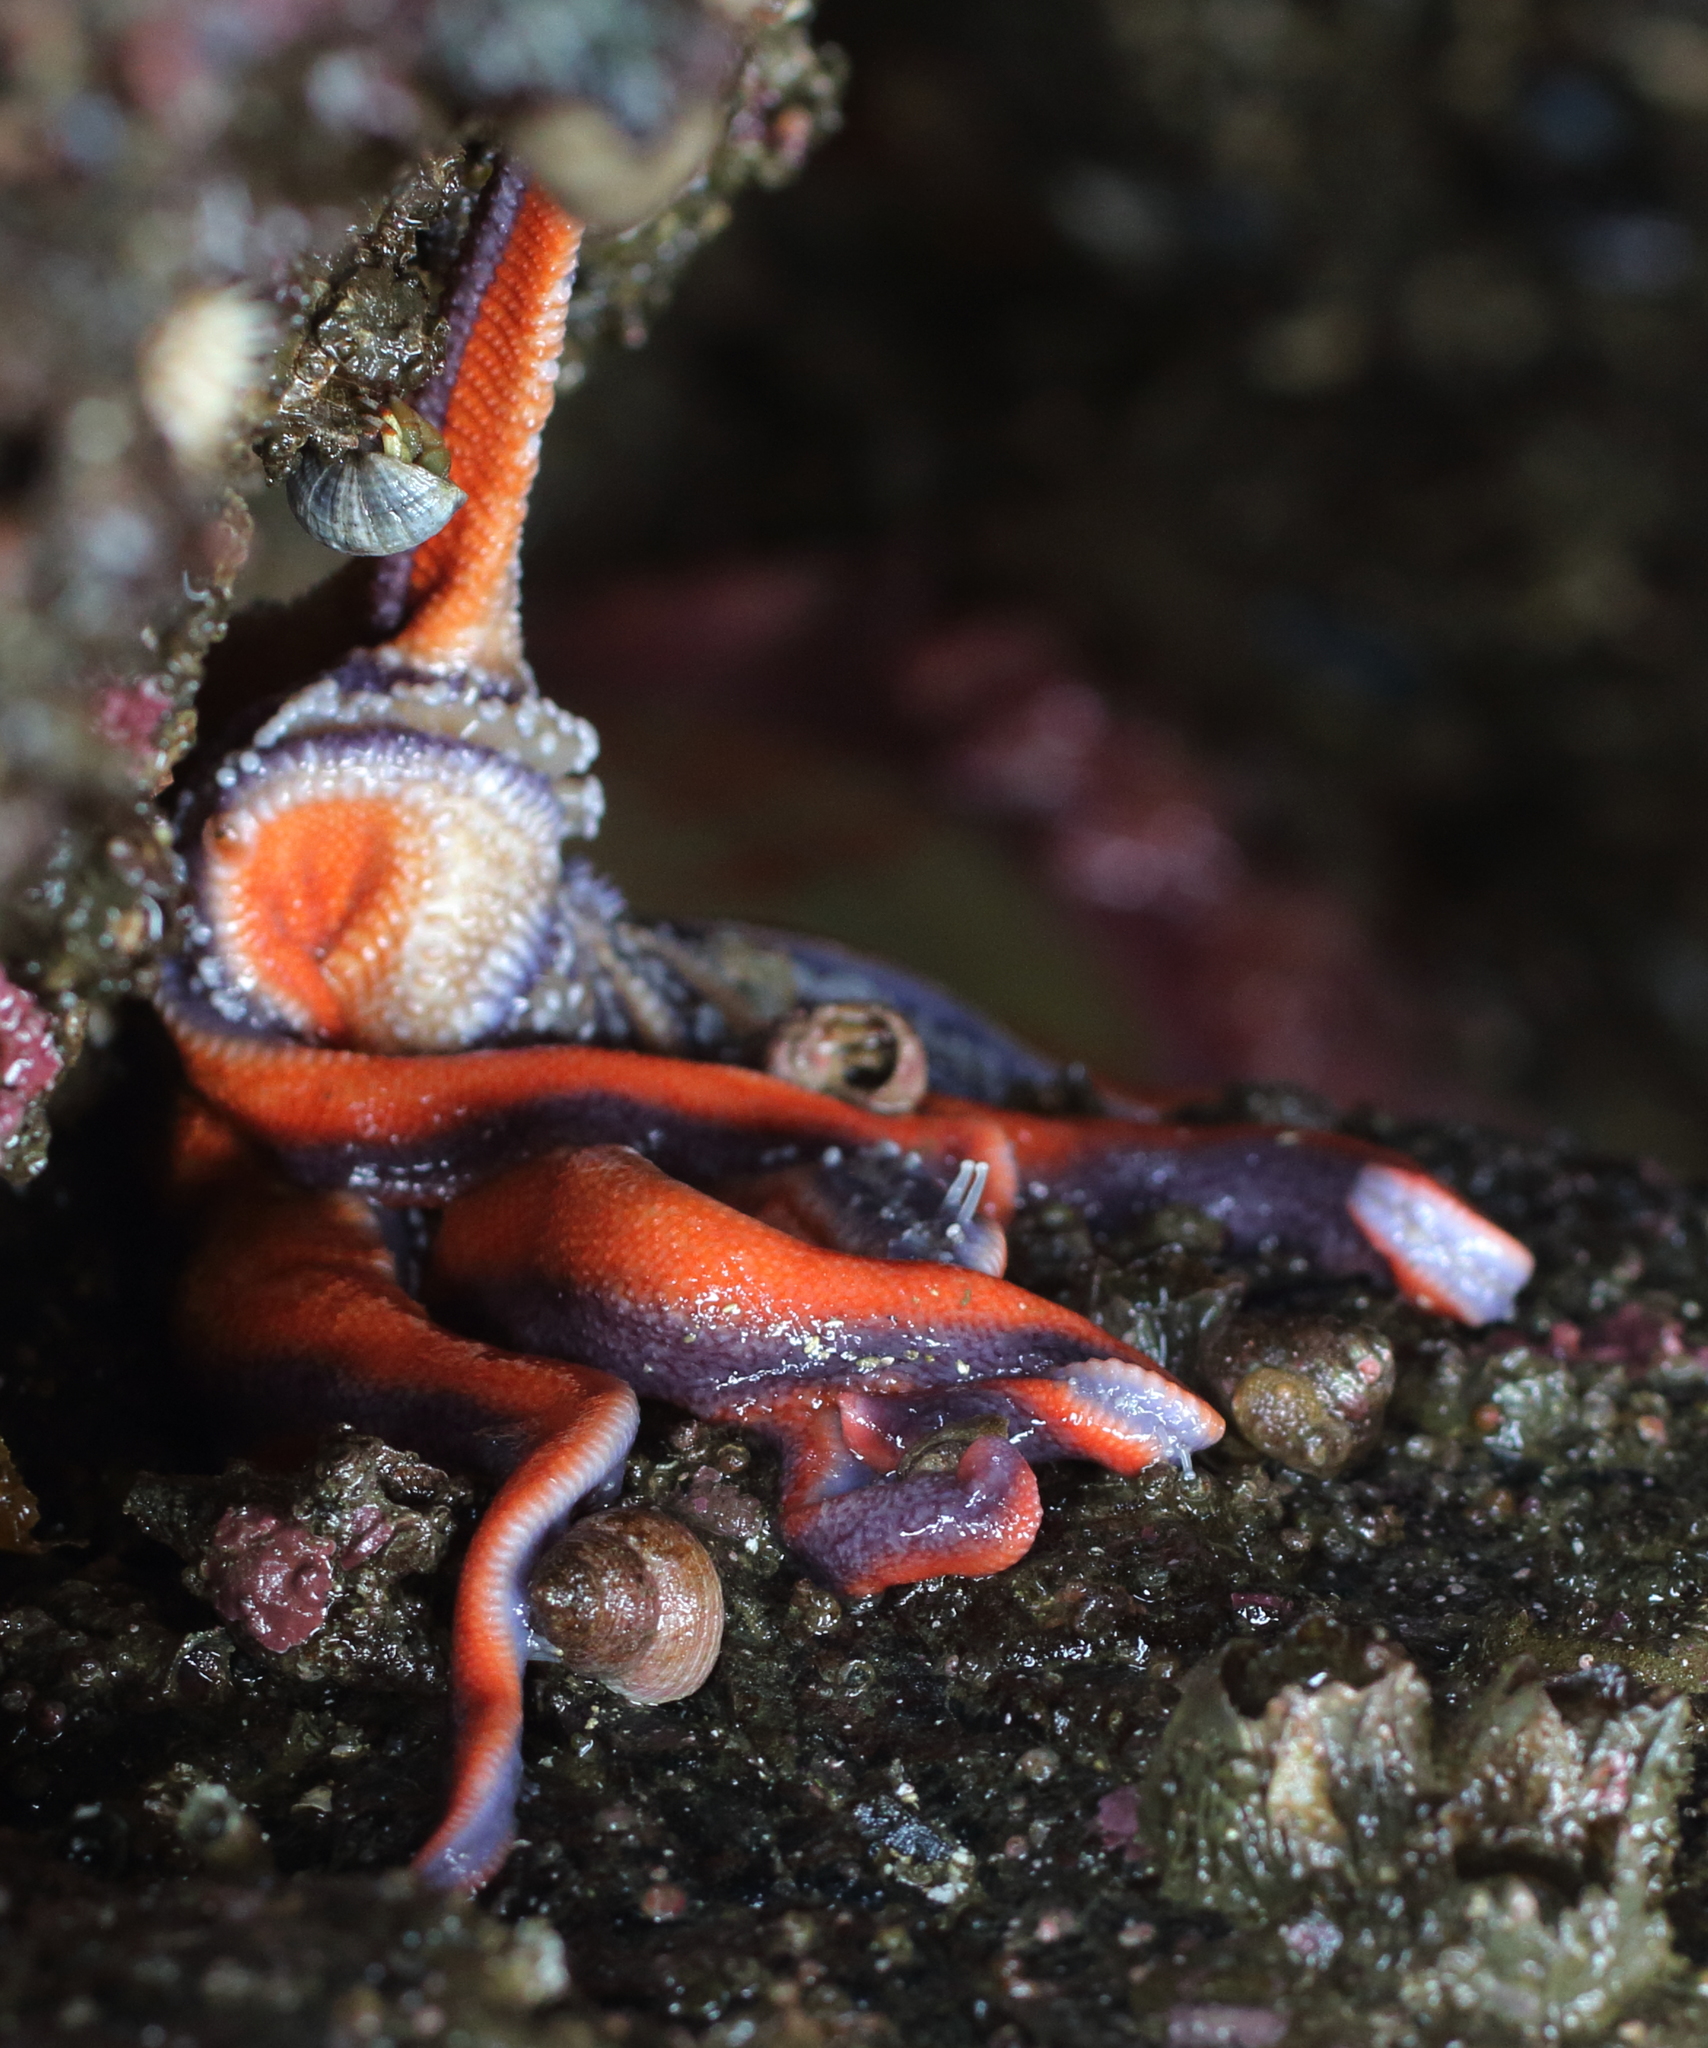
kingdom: Animalia
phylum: Echinodermata
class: Asteroidea
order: Valvatida
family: Solasteridae
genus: Solaster
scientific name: Solaster stimpsoni
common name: Orange sun star
